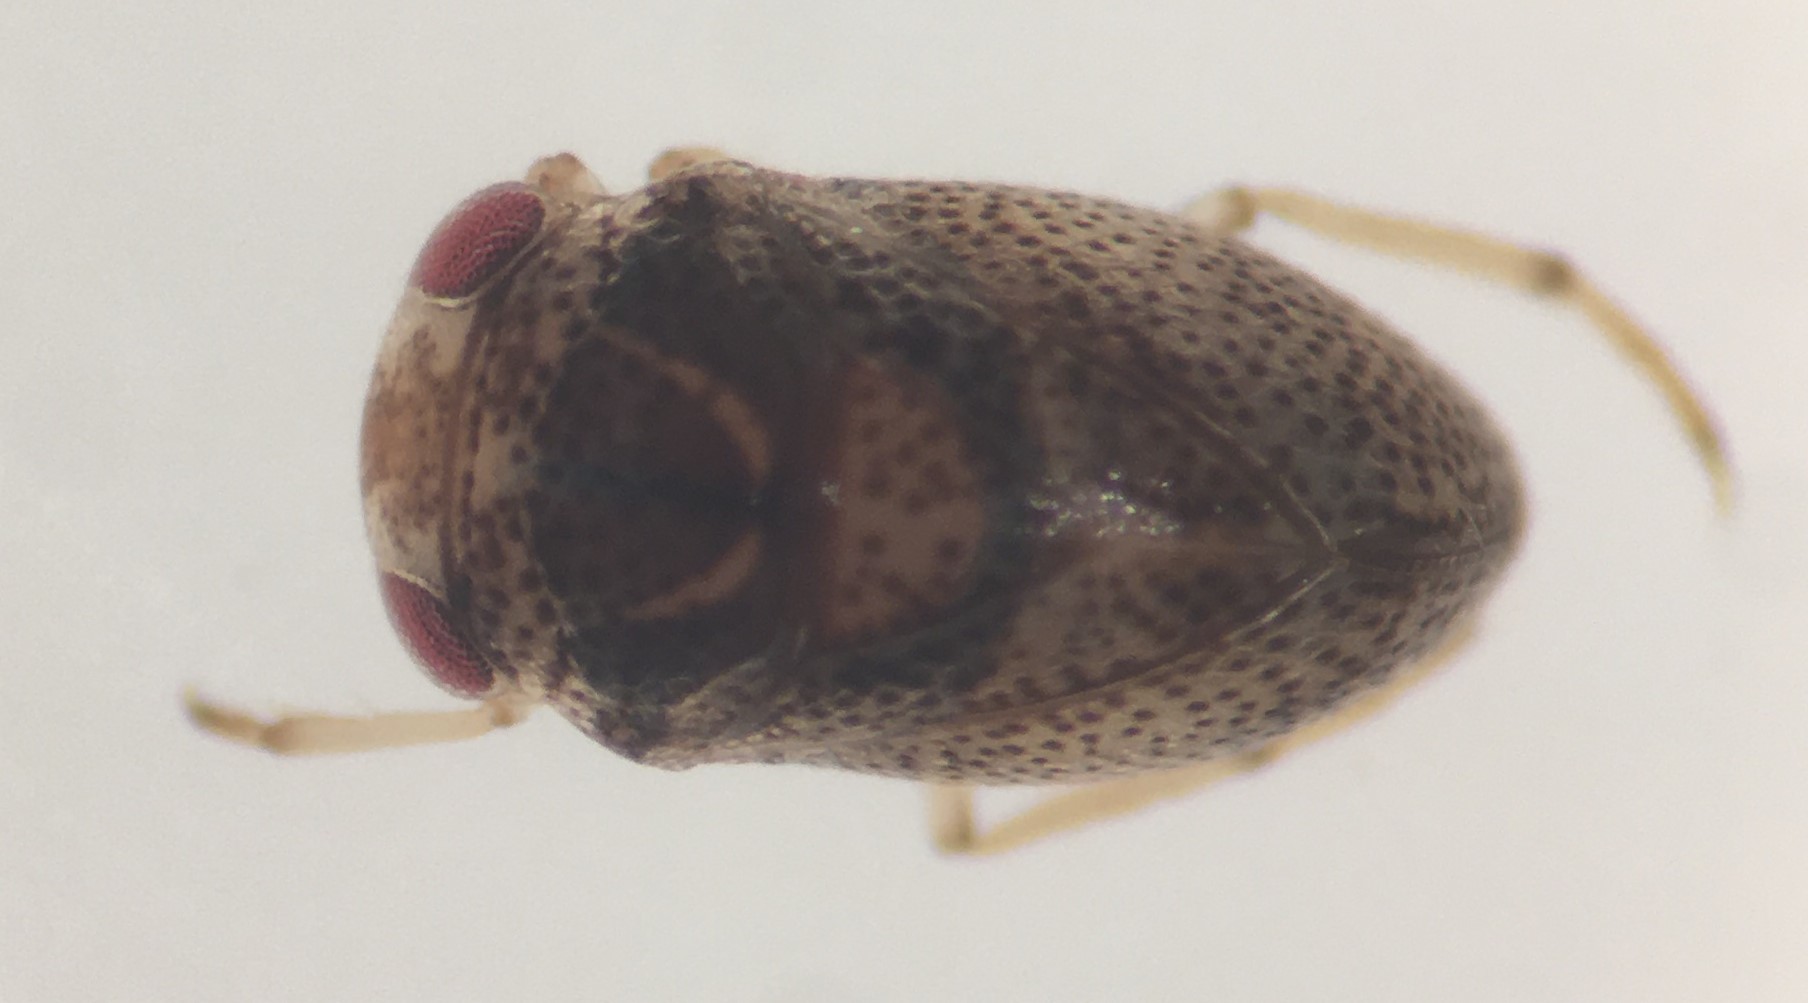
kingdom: Animalia
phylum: Arthropoda
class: Insecta
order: Hemiptera
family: Pleidae
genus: Paraplea
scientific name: Paraplea puella
